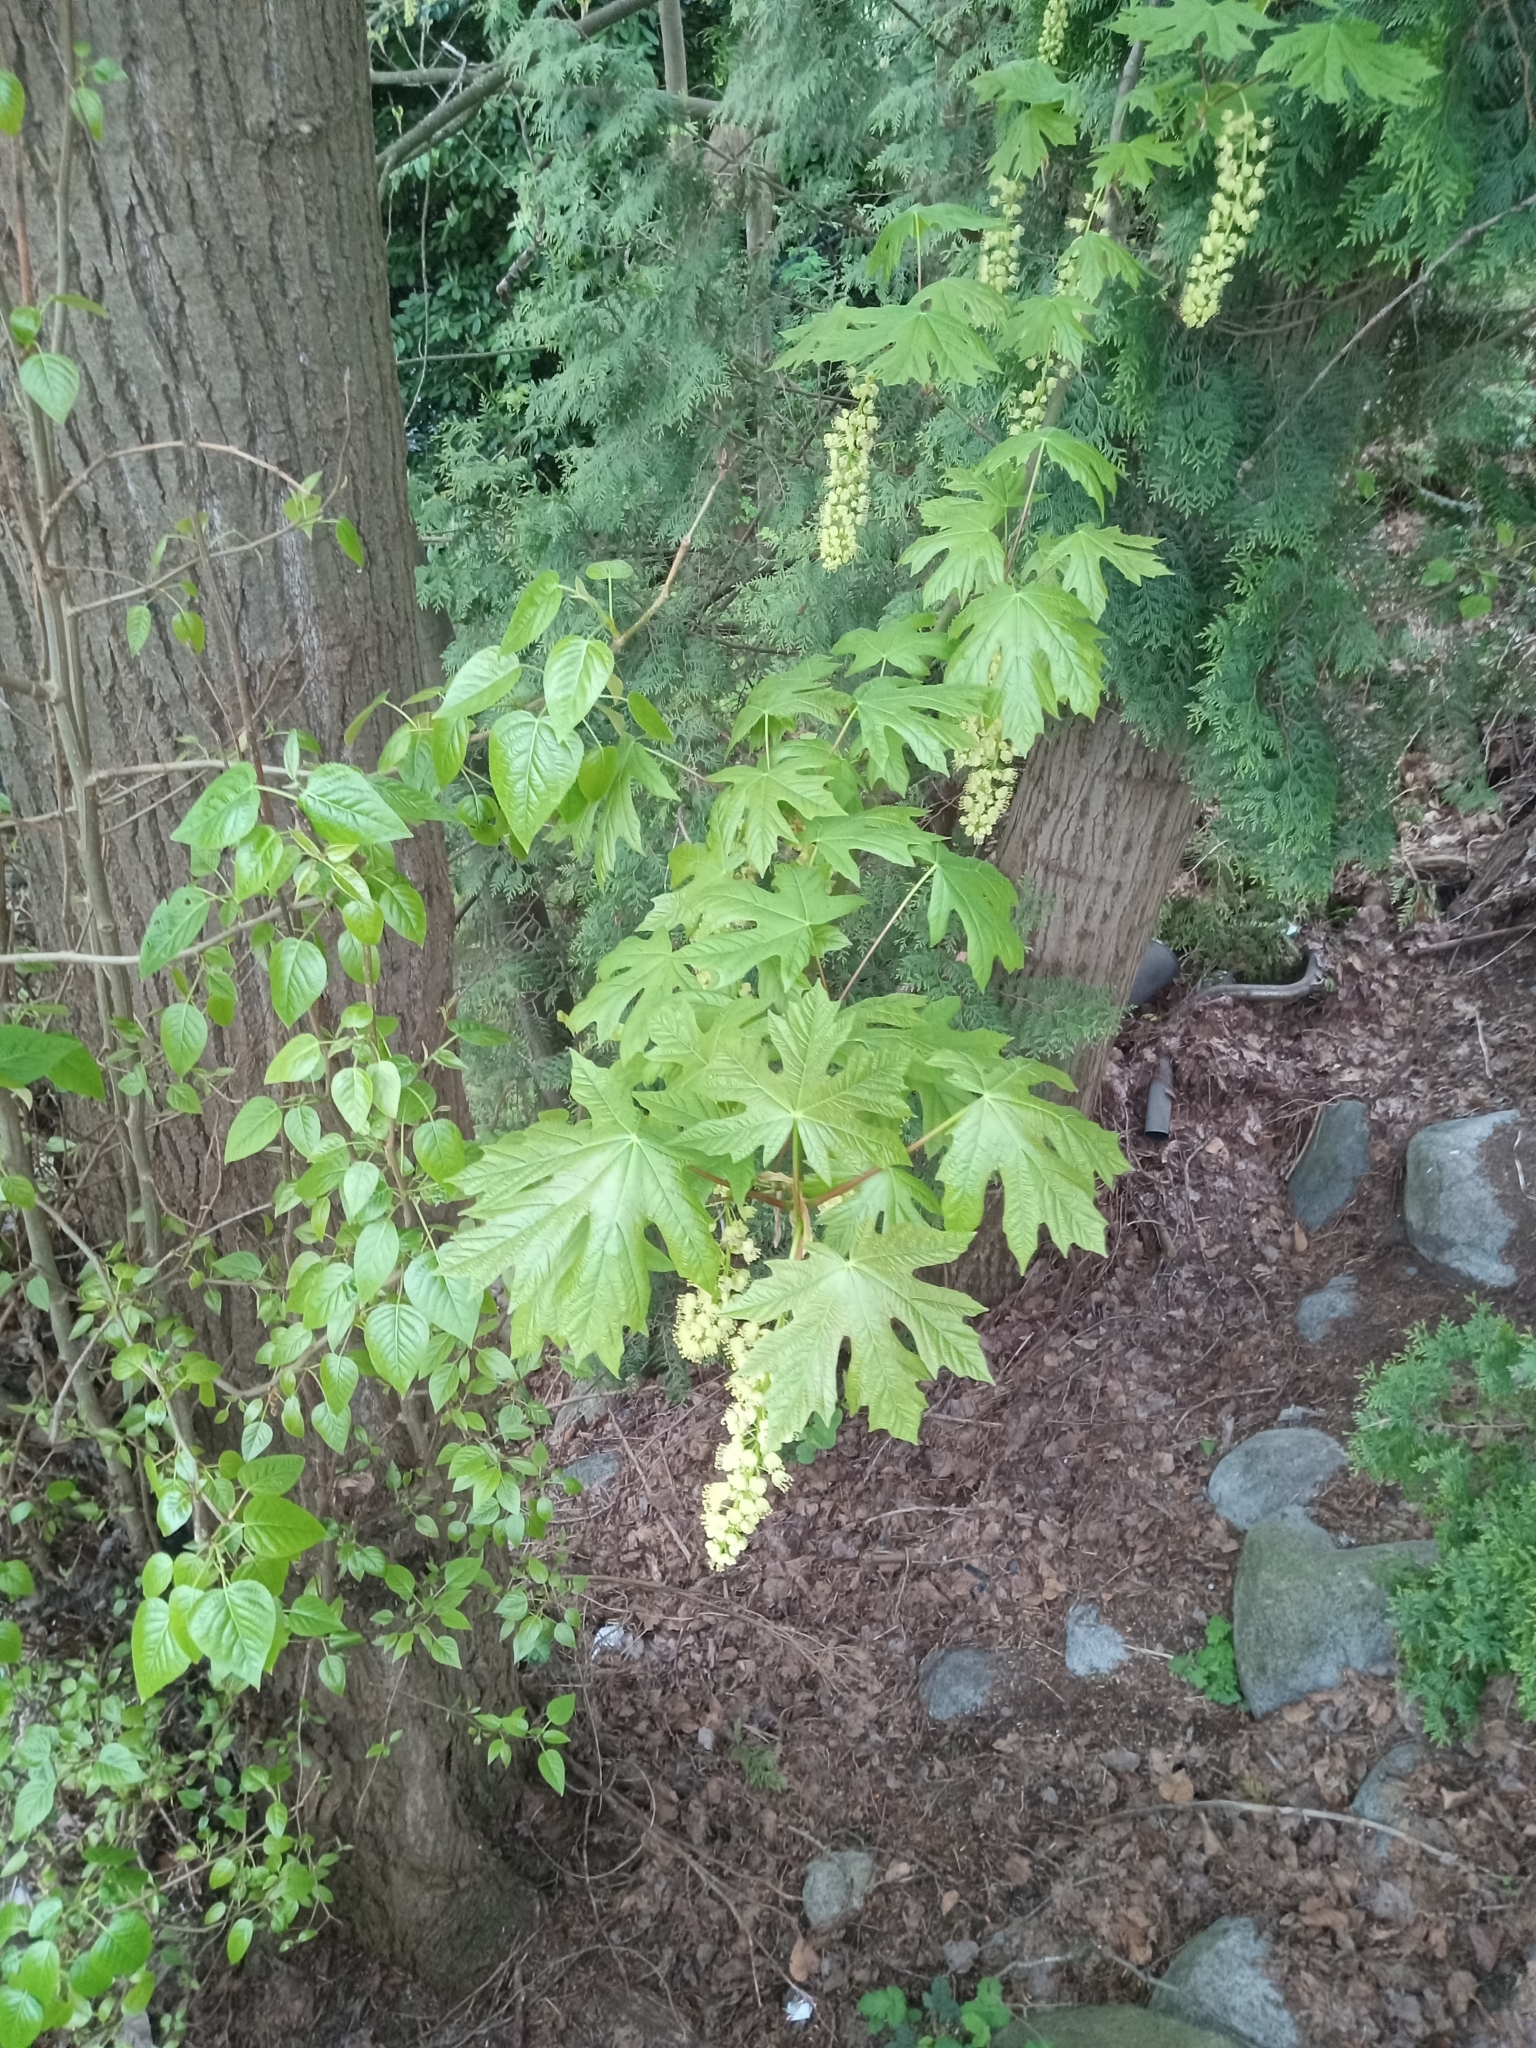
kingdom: Plantae
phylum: Tracheophyta
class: Magnoliopsida
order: Sapindales
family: Sapindaceae
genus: Acer
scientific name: Acer macrophyllum
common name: Oregon maple
